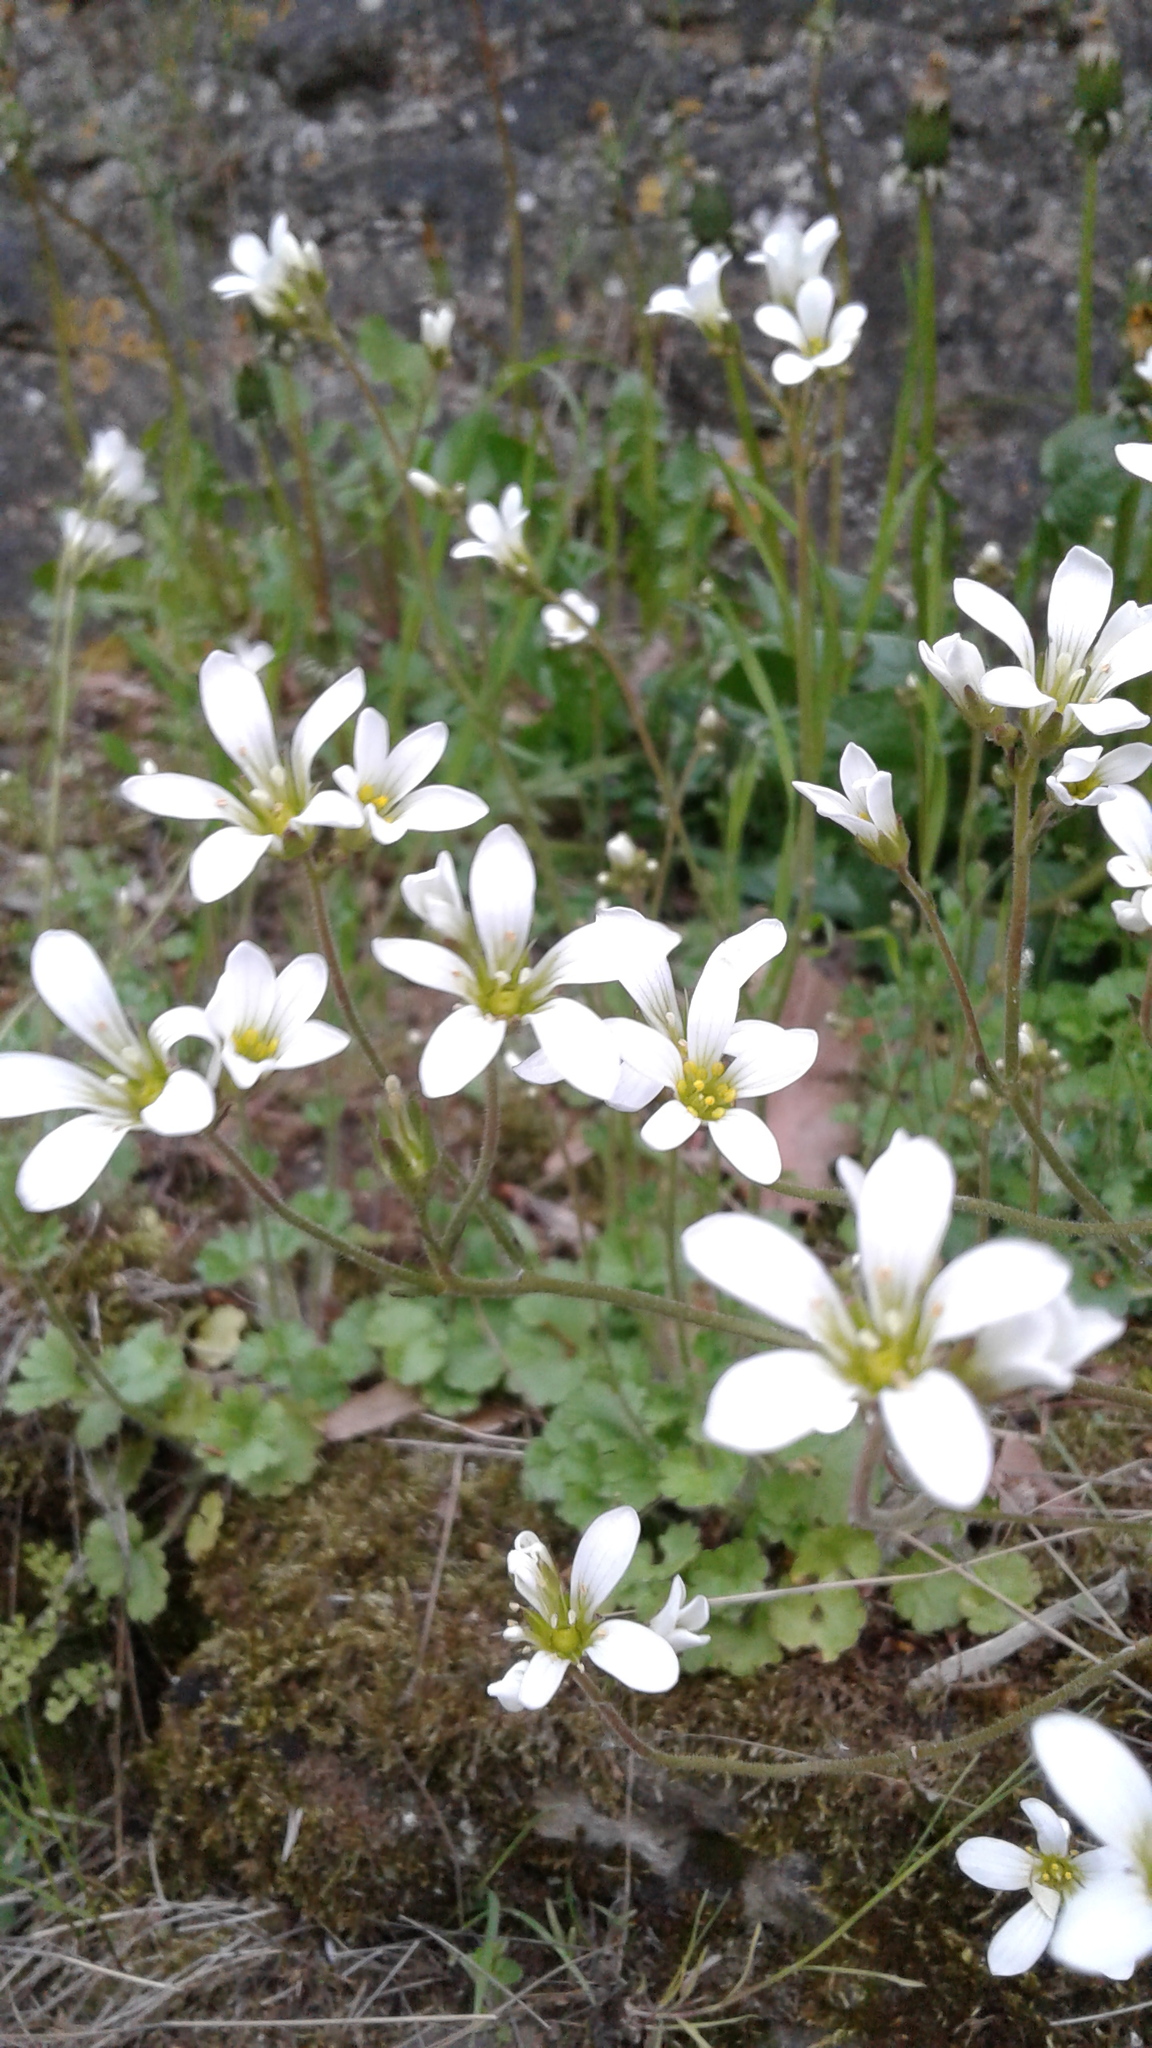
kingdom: Plantae
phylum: Tracheophyta
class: Magnoliopsida
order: Saxifragales
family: Saxifragaceae
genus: Saxifraga
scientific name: Saxifraga granulata
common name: Meadow saxifrage
